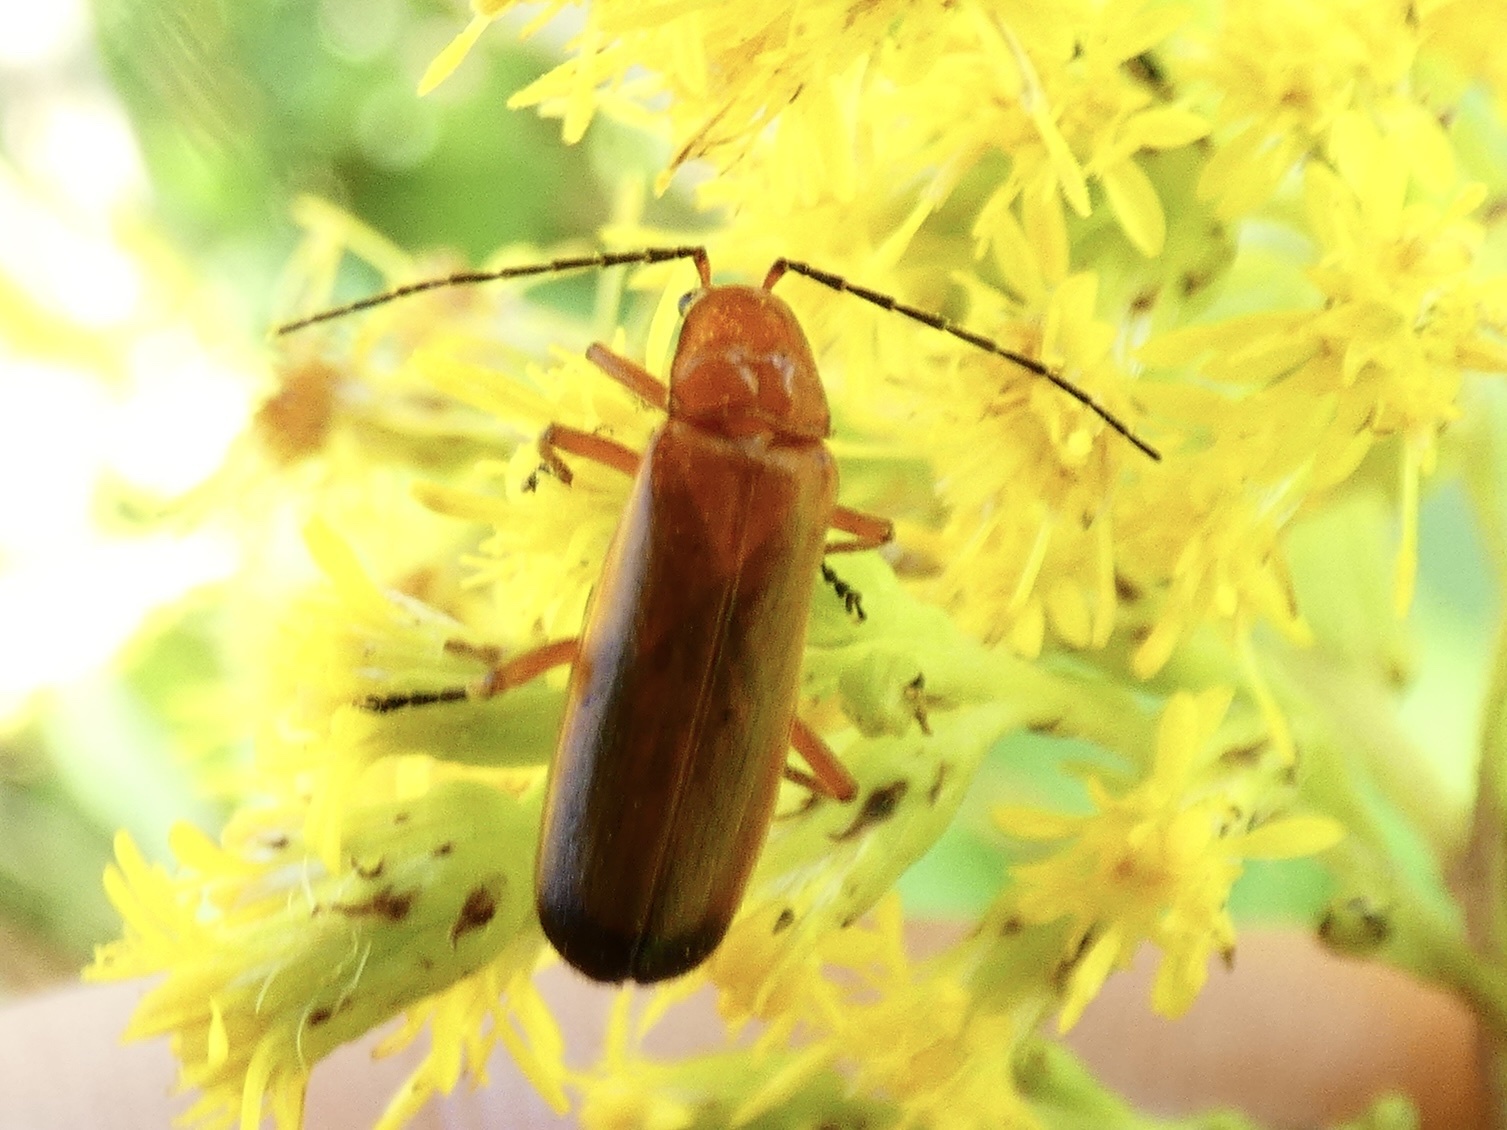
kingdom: Animalia
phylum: Arthropoda
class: Insecta
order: Coleoptera
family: Cantharidae
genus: Rhagonycha
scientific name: Rhagonycha fulva
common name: Common red soldier beetle
